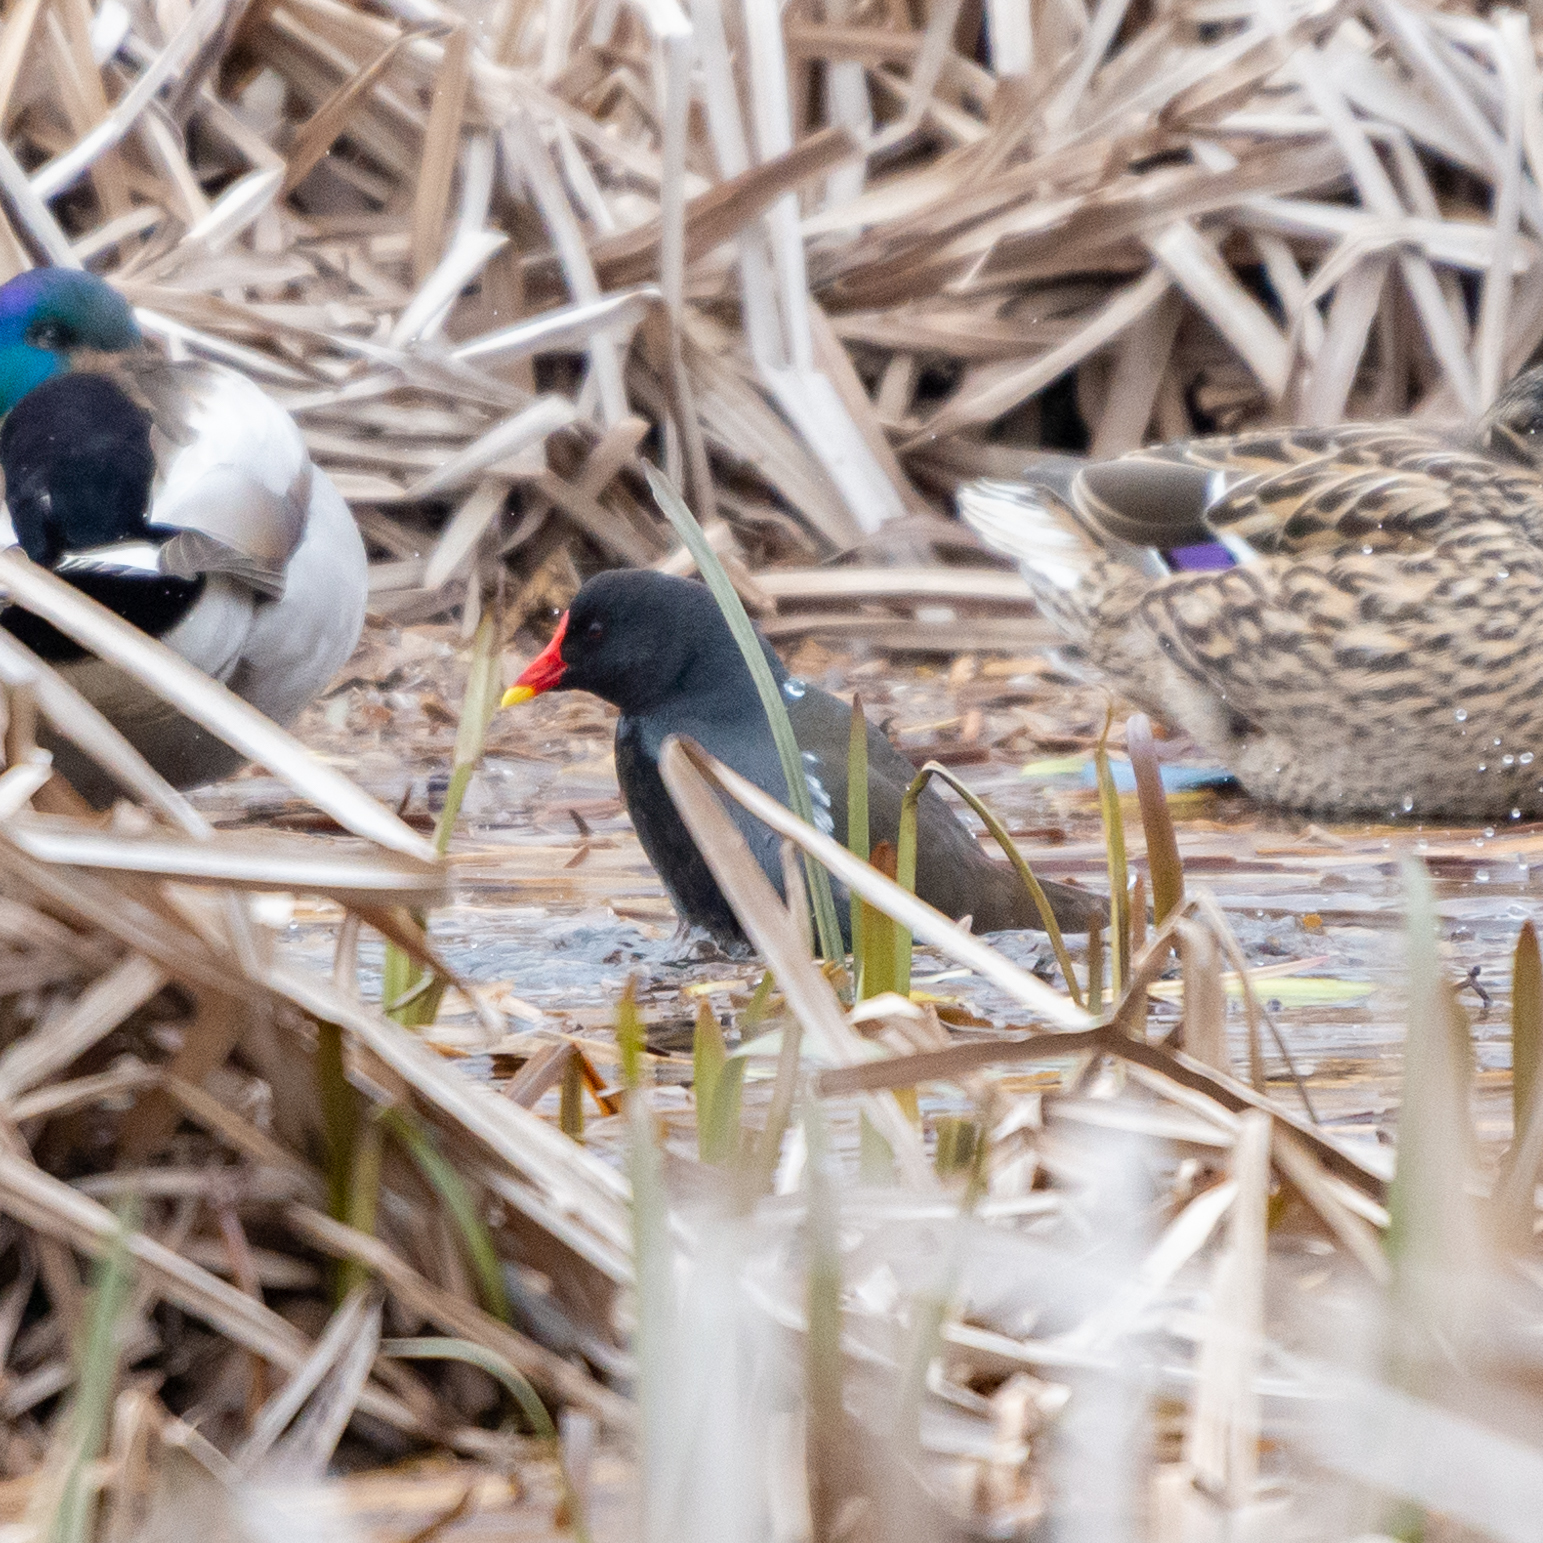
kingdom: Animalia
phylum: Chordata
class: Aves
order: Gruiformes
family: Rallidae
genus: Gallinula
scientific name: Gallinula chloropus
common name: Common moorhen
